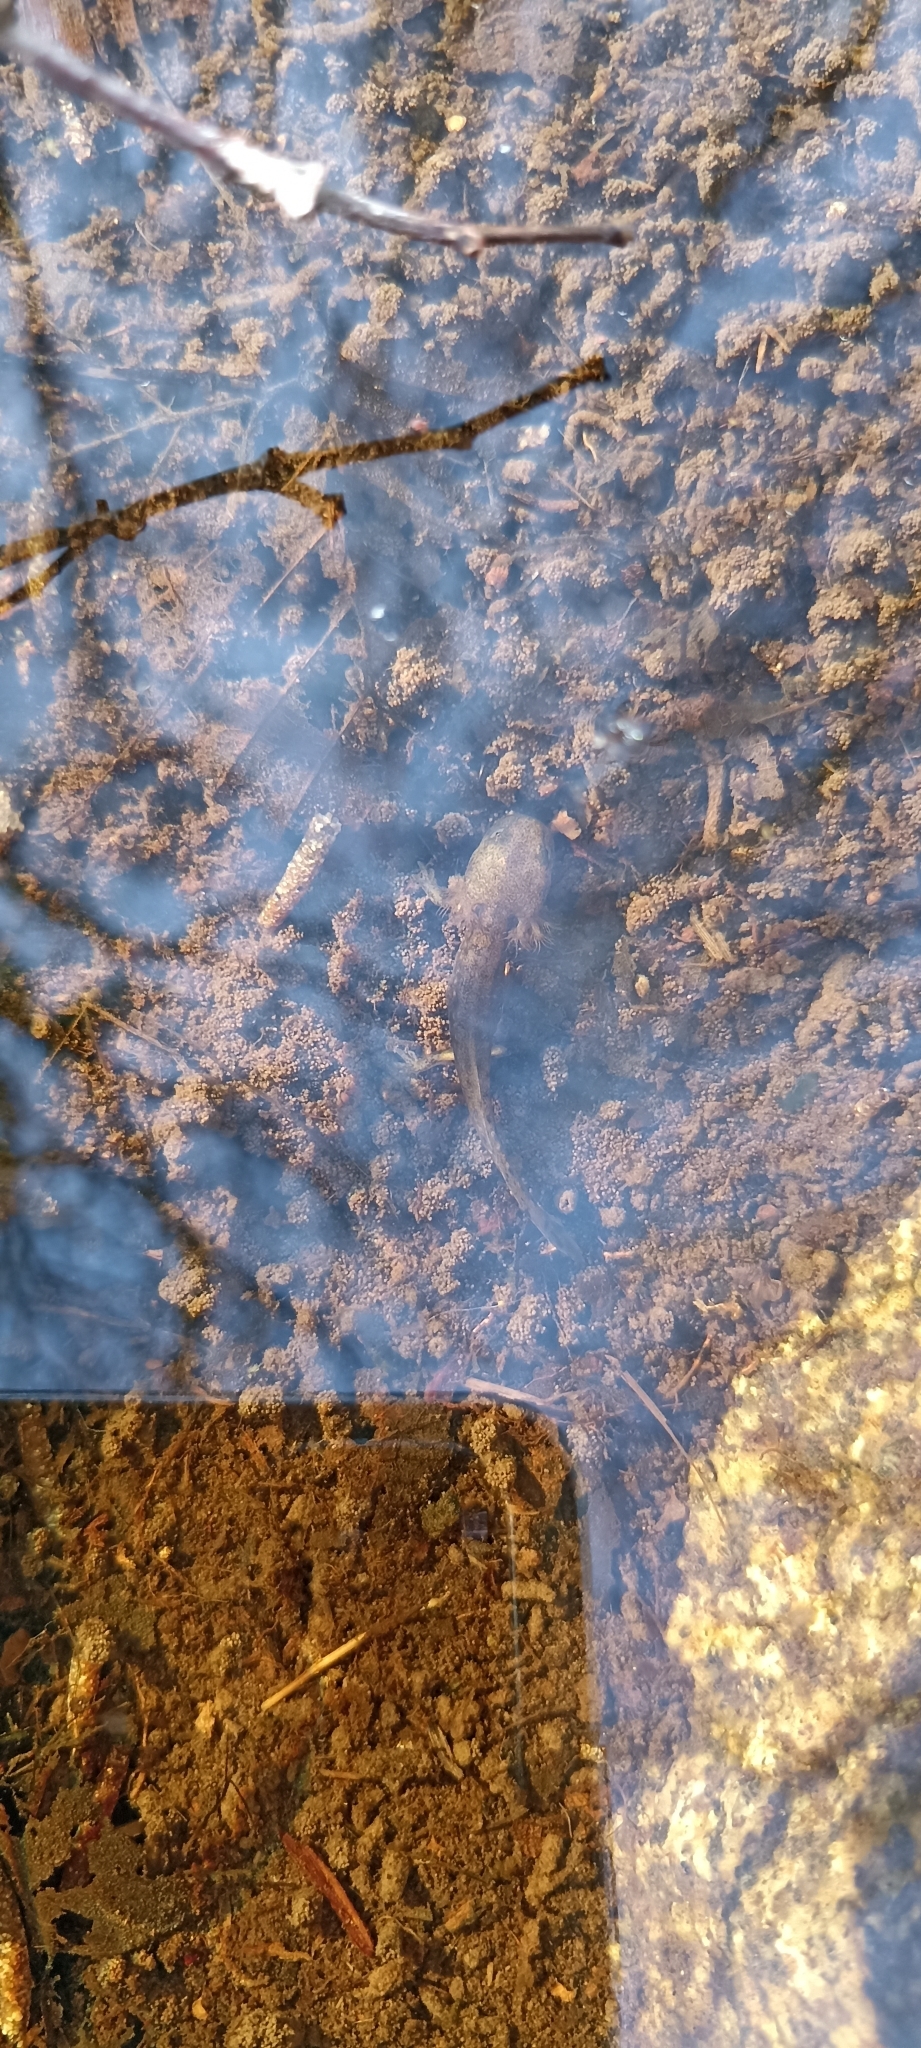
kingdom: Animalia
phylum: Chordata
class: Amphibia
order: Caudata
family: Salamandridae
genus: Salamandra
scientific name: Salamandra salamandra
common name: Fire salamander
